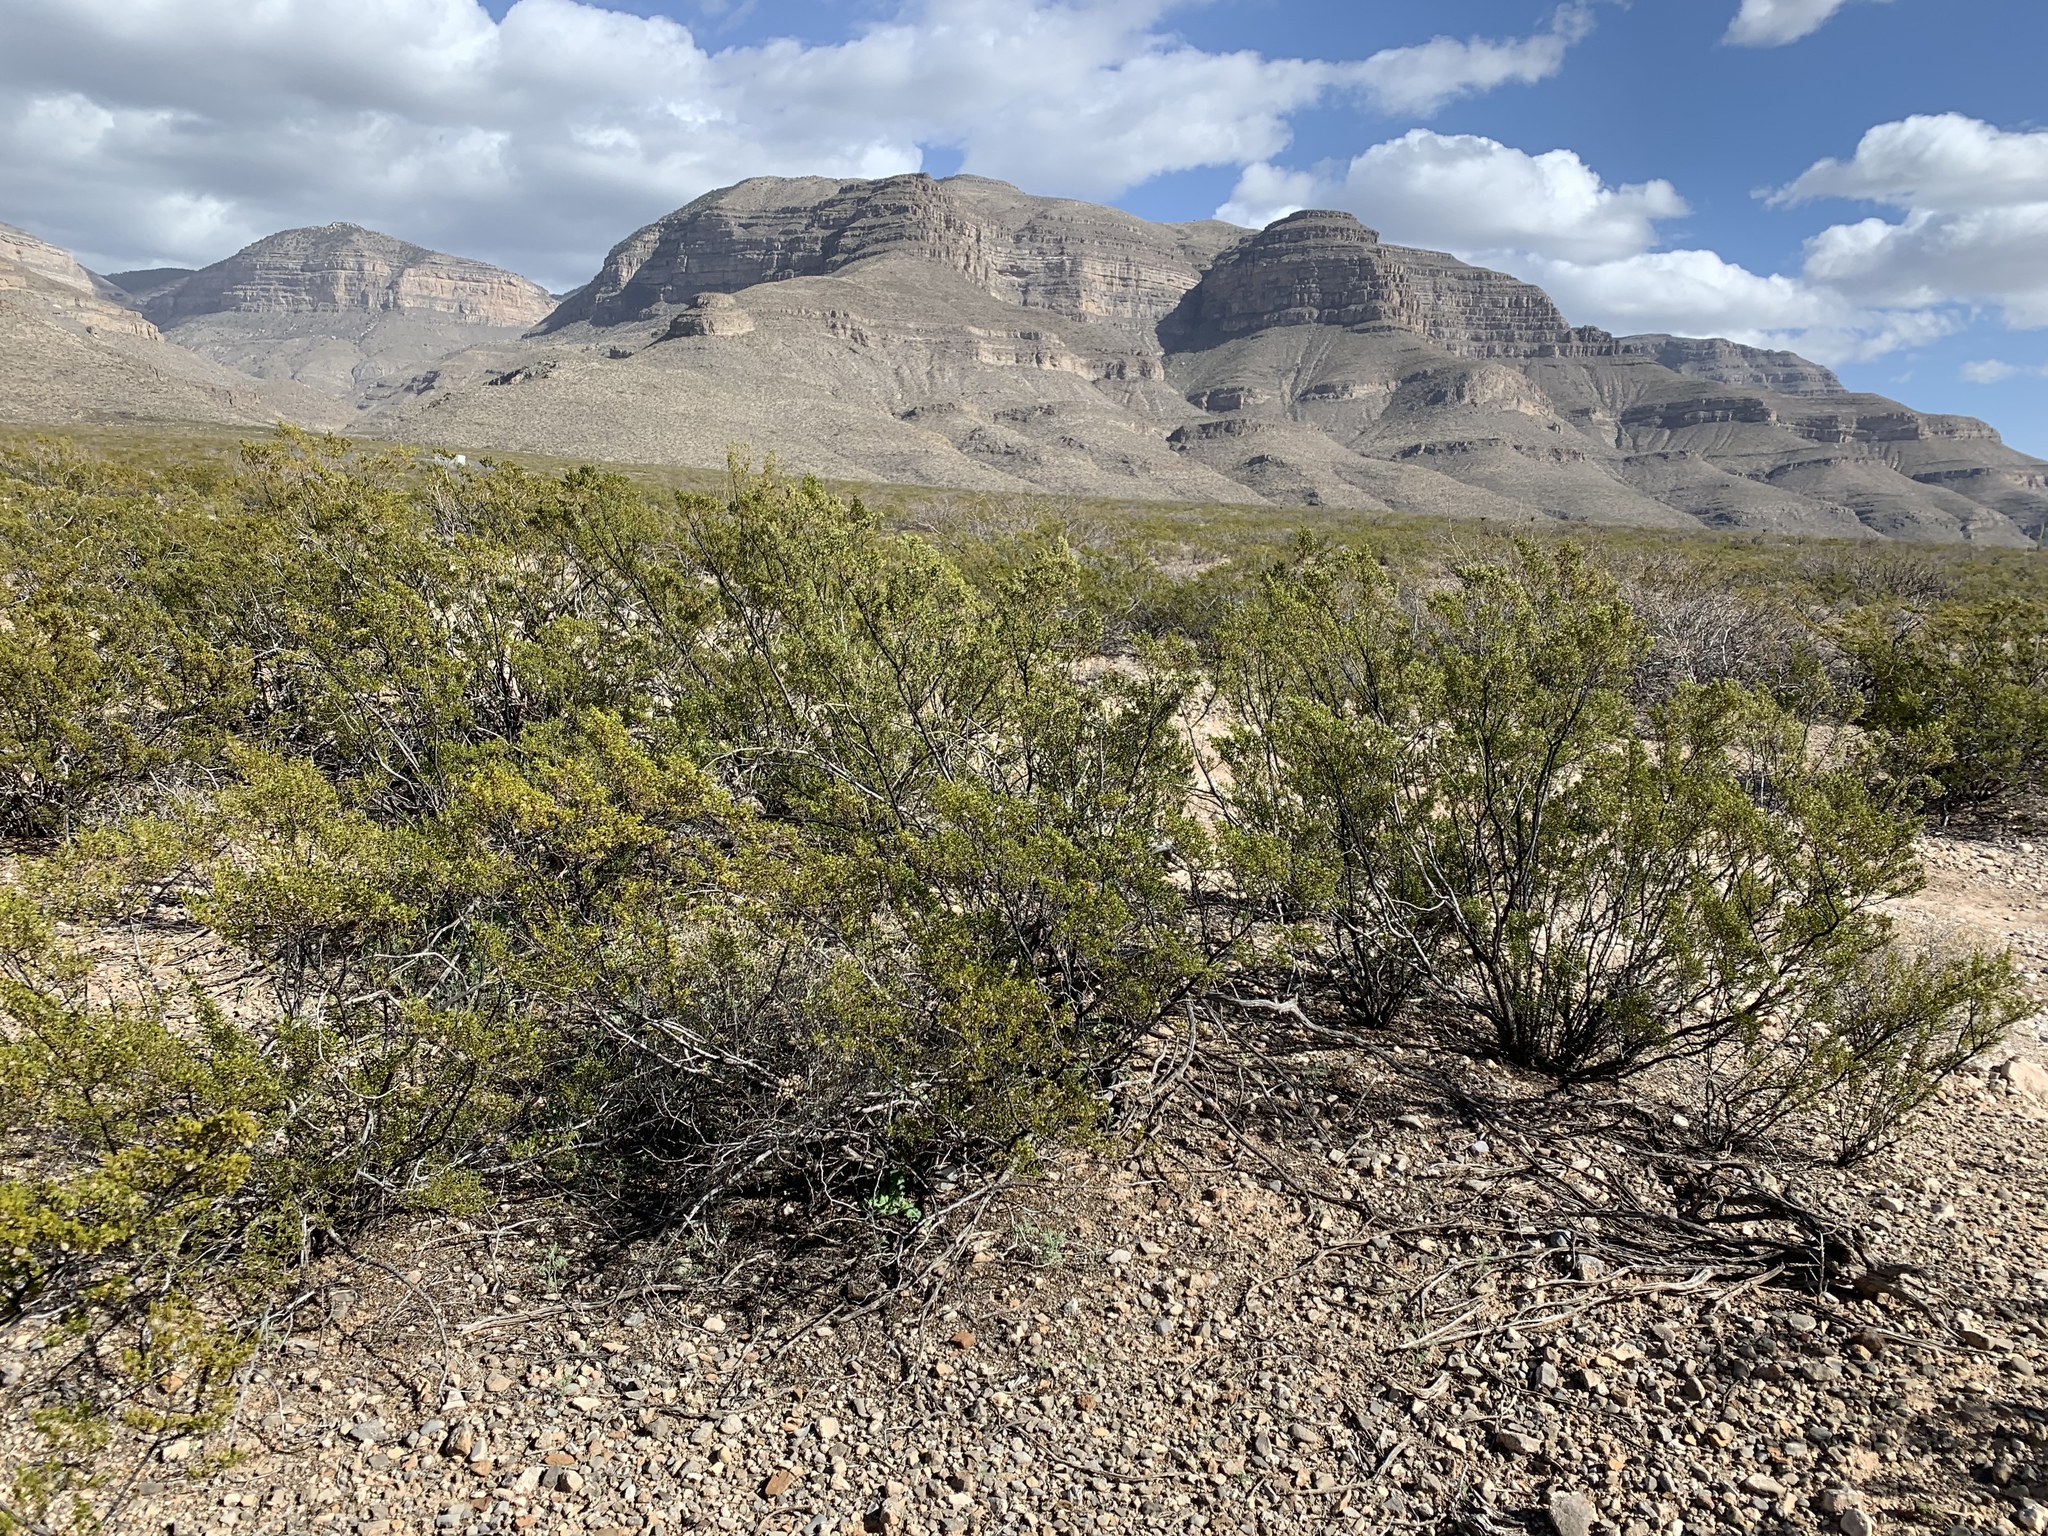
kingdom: Plantae
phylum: Tracheophyta
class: Magnoliopsida
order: Zygophyllales
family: Zygophyllaceae
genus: Larrea
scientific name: Larrea tridentata
